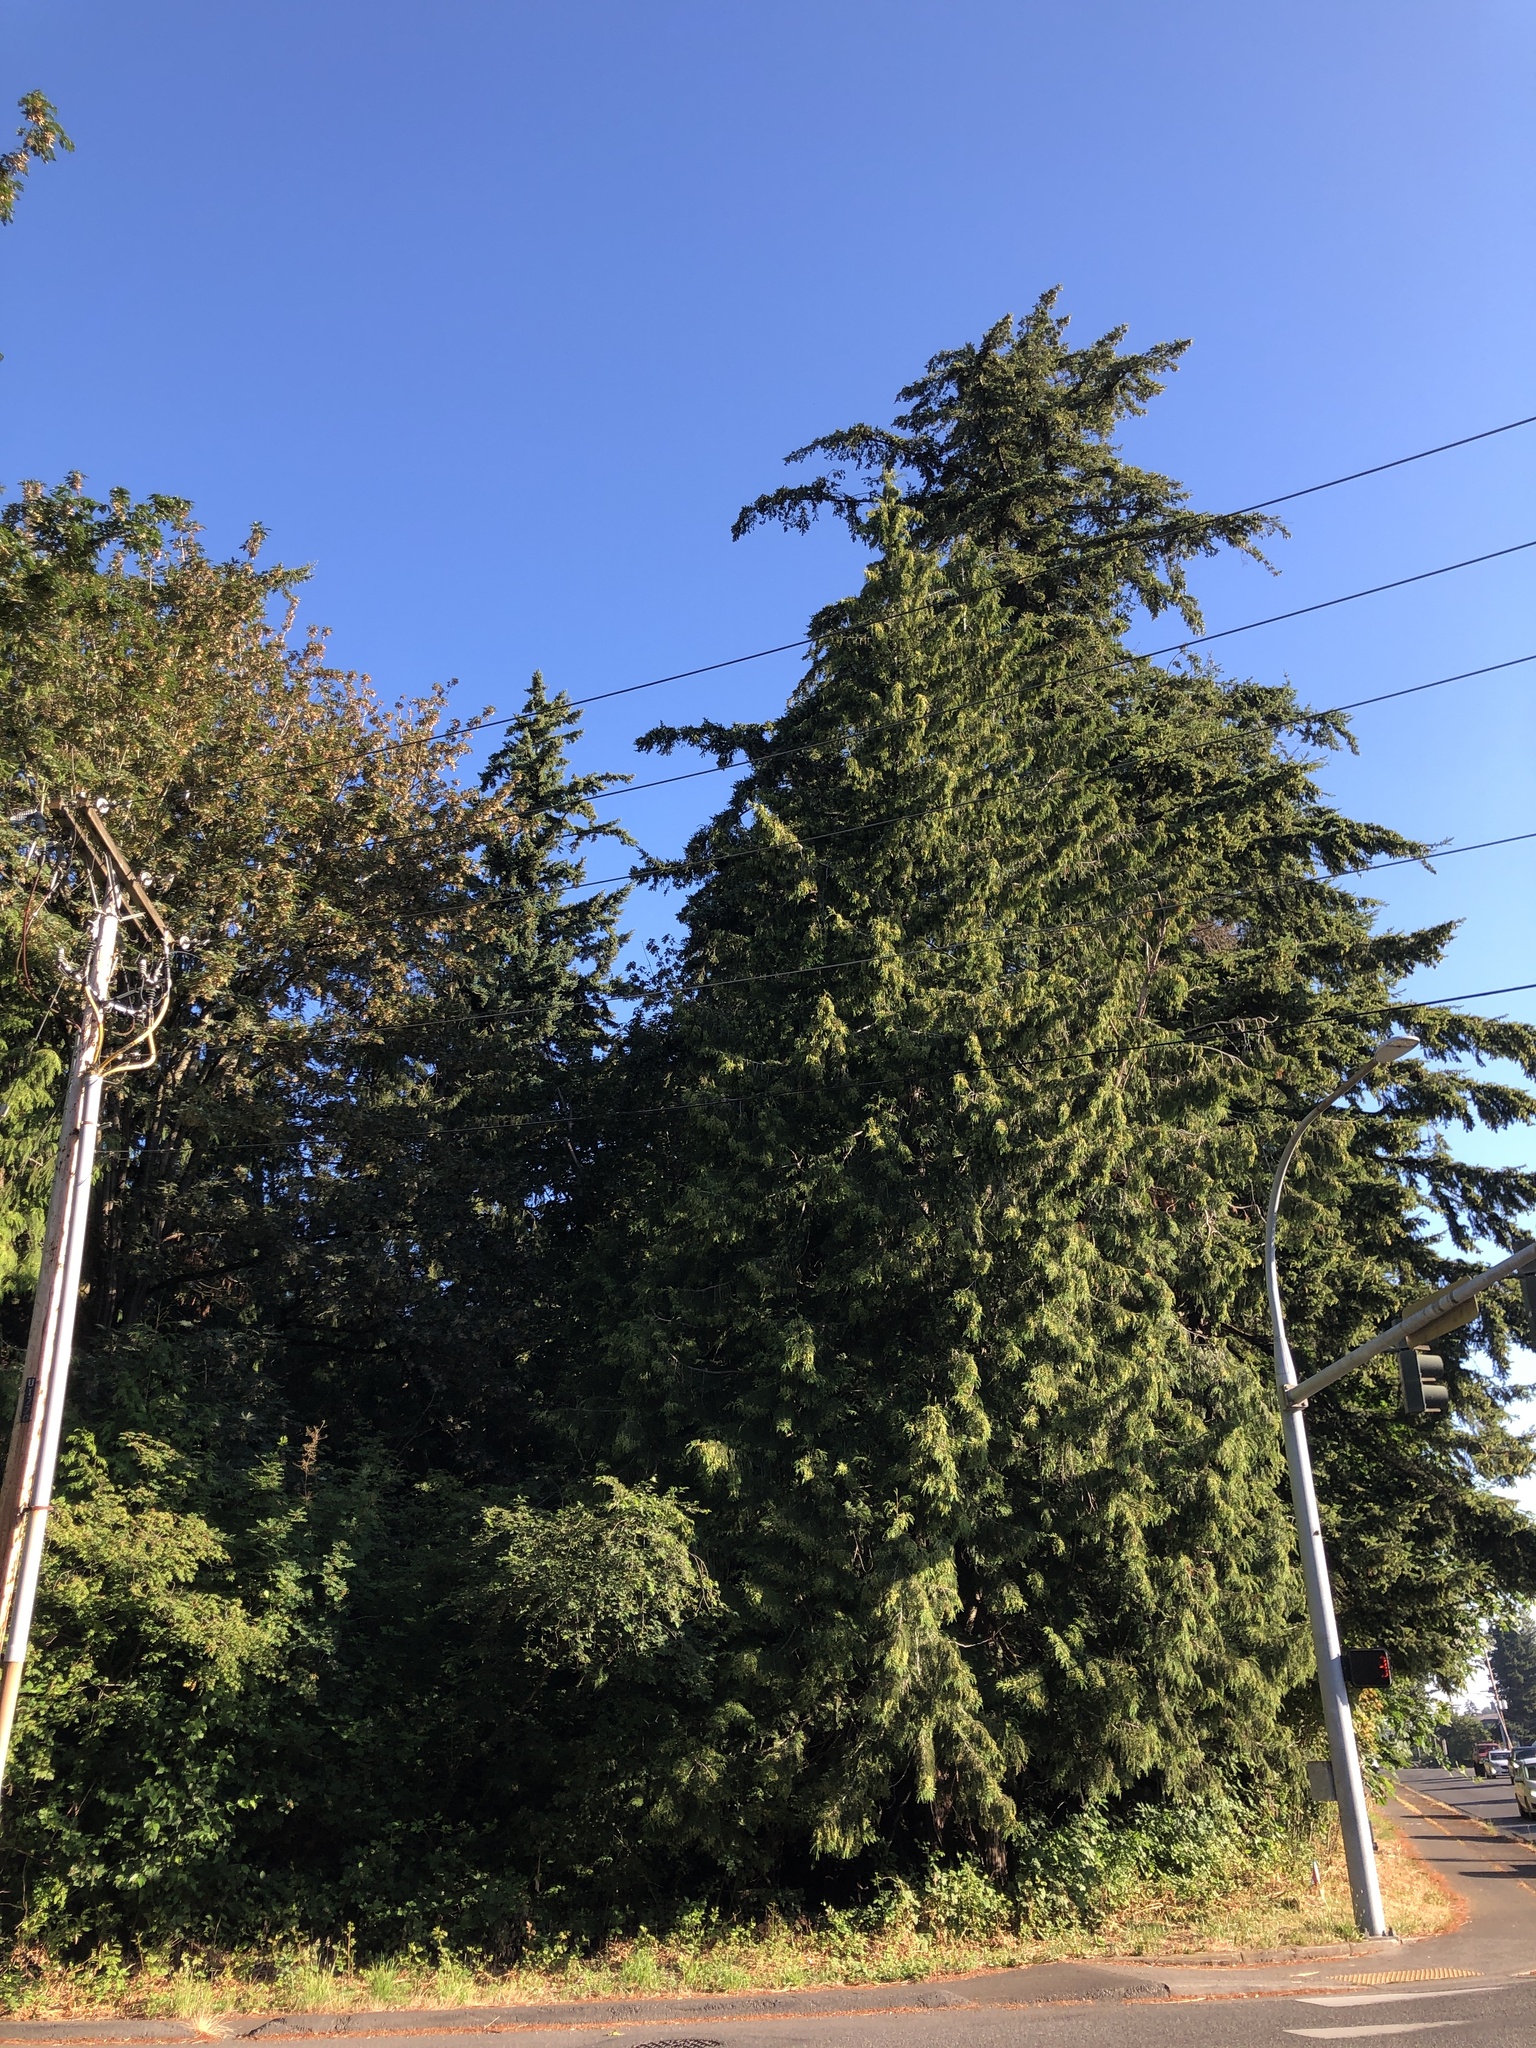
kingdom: Plantae
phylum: Tracheophyta
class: Pinopsida
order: Pinales
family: Cupressaceae
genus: Thuja
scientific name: Thuja plicata
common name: Western red-cedar
